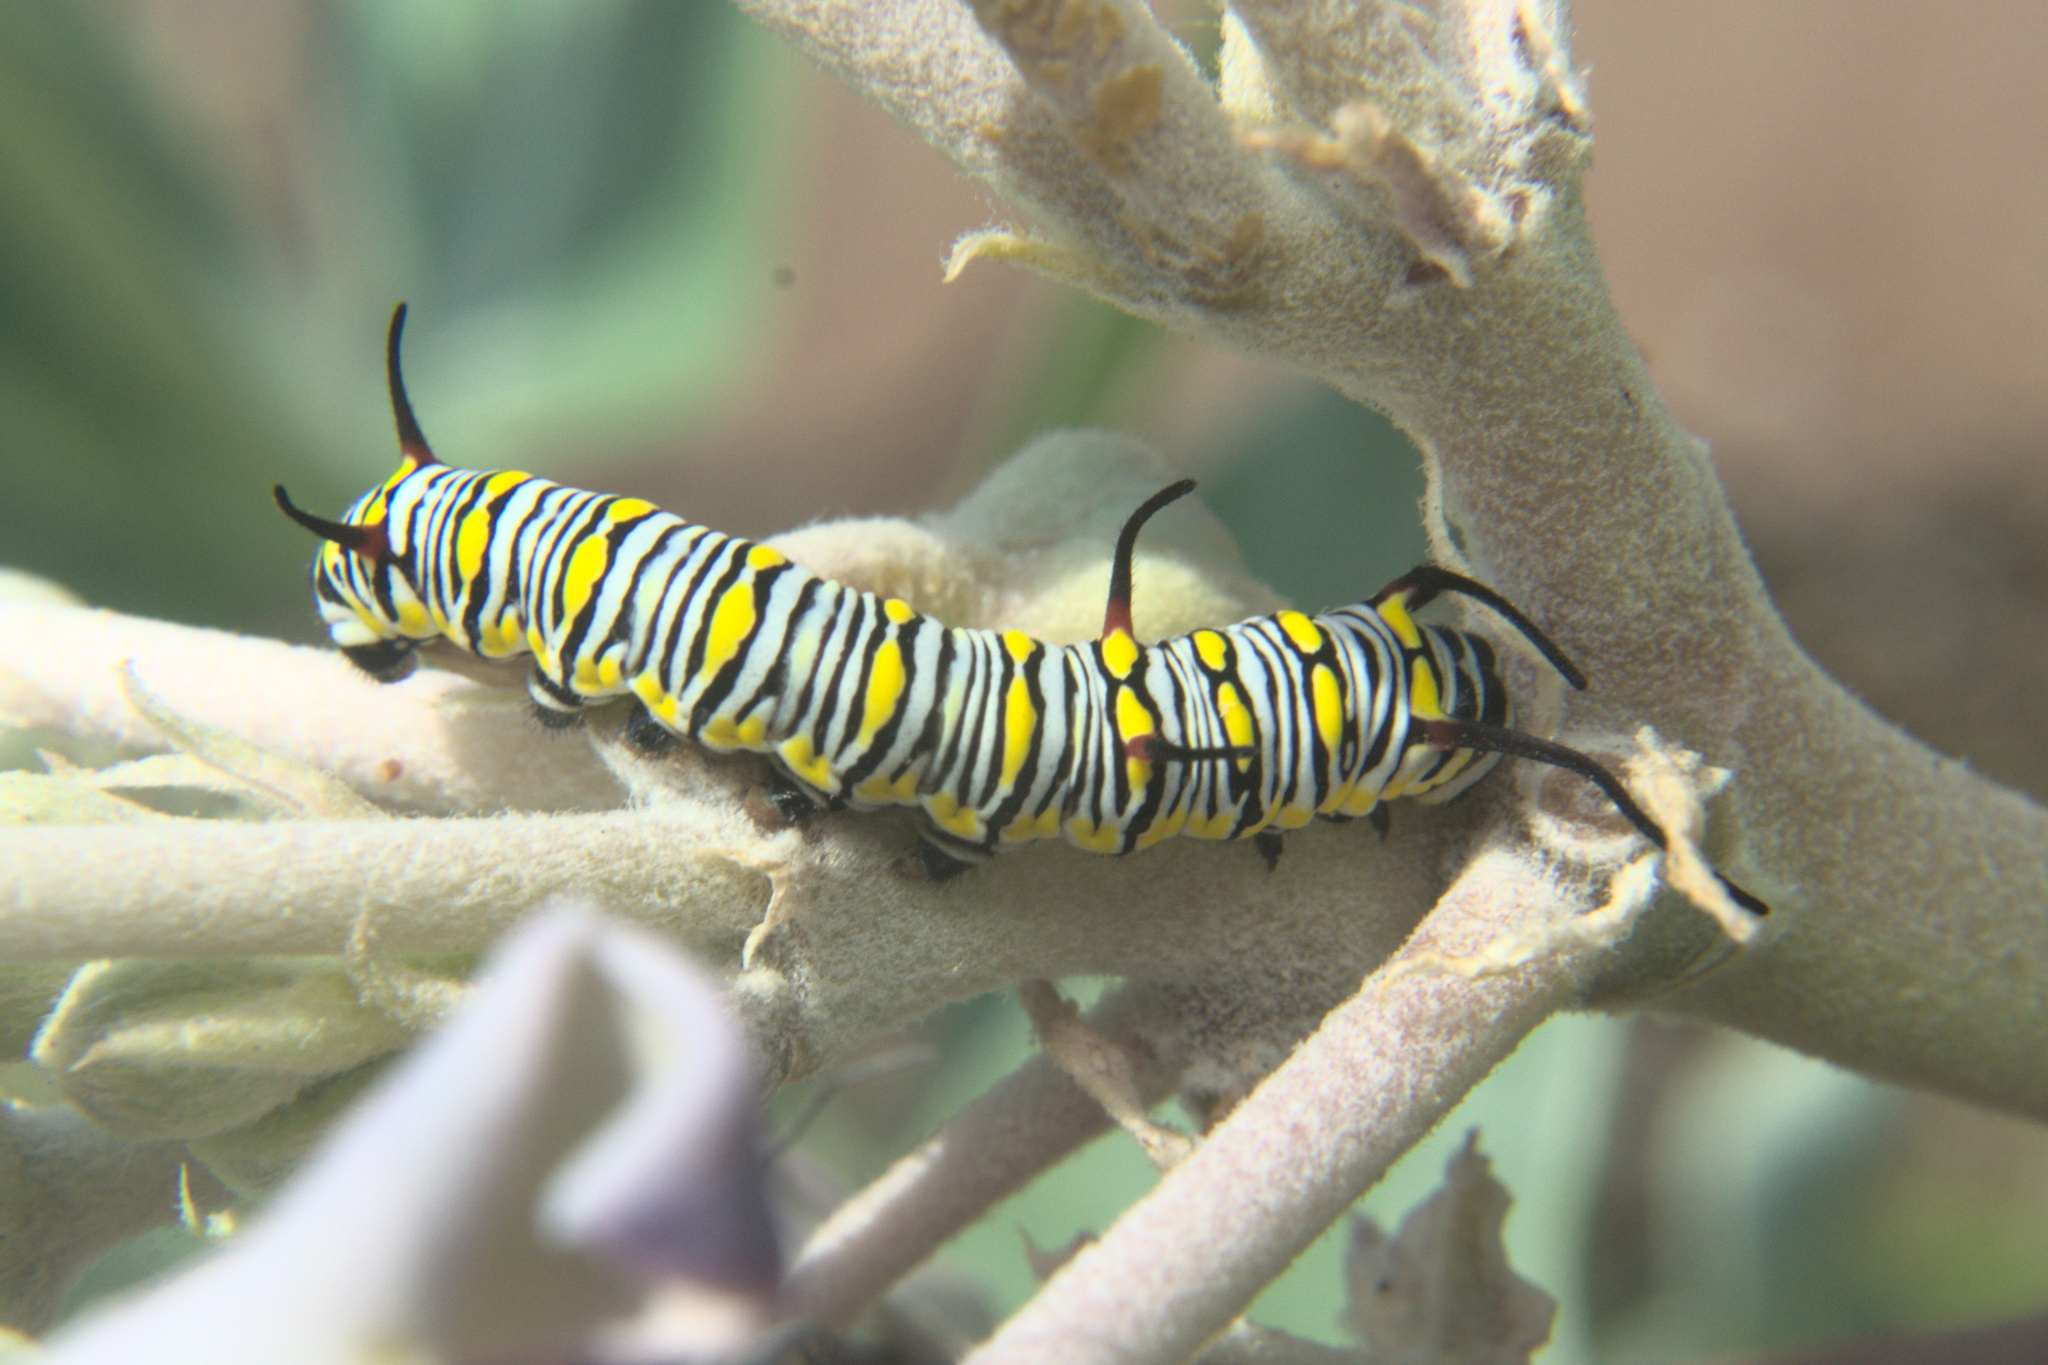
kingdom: Animalia
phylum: Arthropoda
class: Insecta
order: Lepidoptera
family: Nymphalidae
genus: Danaus
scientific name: Danaus chrysippus
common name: Plain tiger
